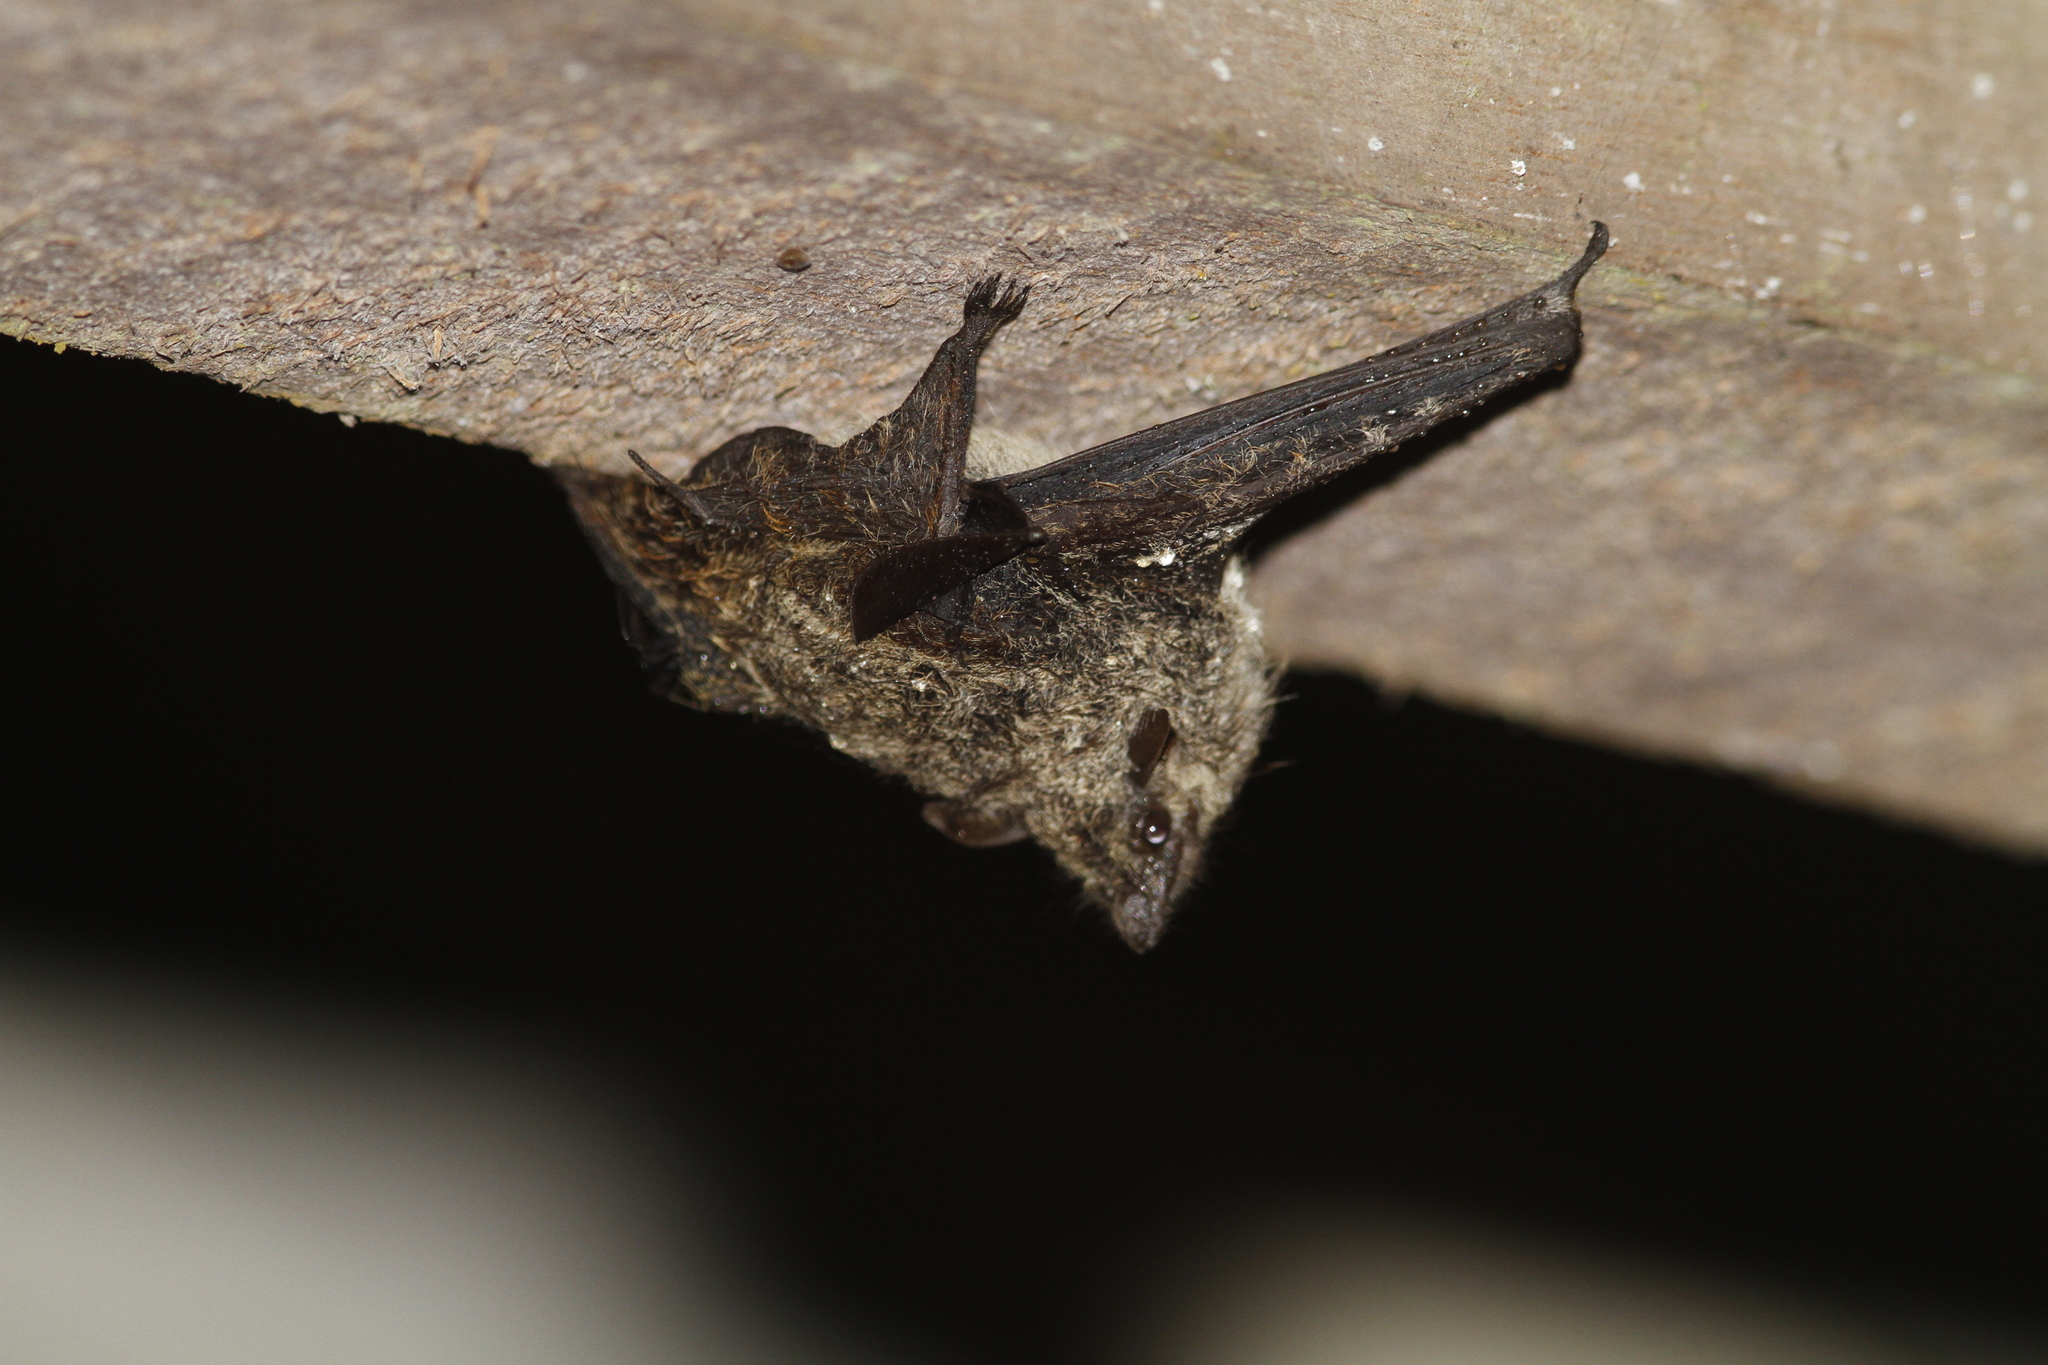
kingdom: Animalia
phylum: Chordata
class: Mammalia
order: Chiroptera
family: Emballonuridae
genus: Rhynchonycteris
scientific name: Rhynchonycteris naso
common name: Proboscis bat
